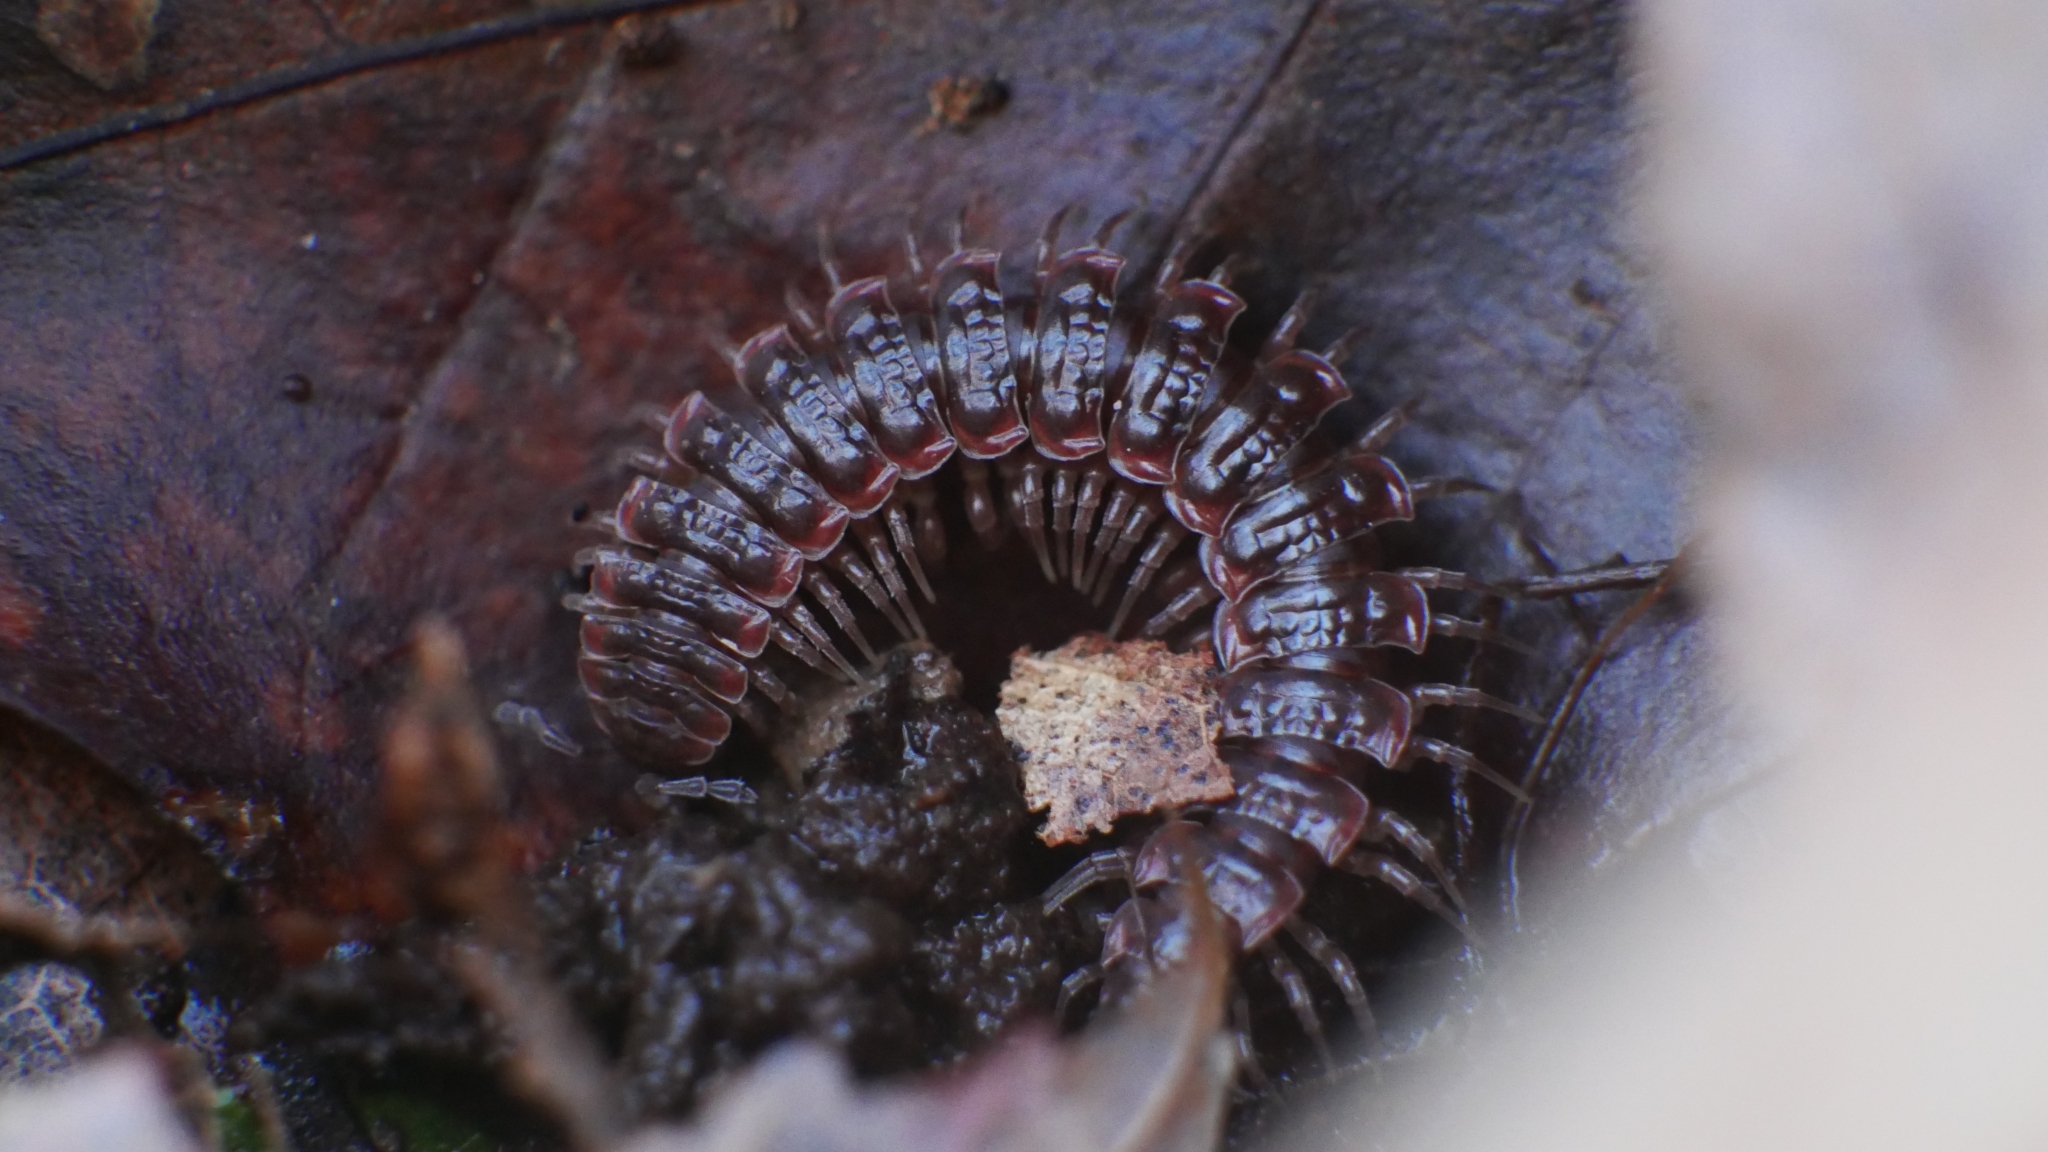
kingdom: Animalia
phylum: Arthropoda
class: Diplopoda
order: Polydesmida
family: Polydesmidae
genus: Pseudopolydesmus
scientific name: Pseudopolydesmus serratus
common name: Common pink flat-back millipede
